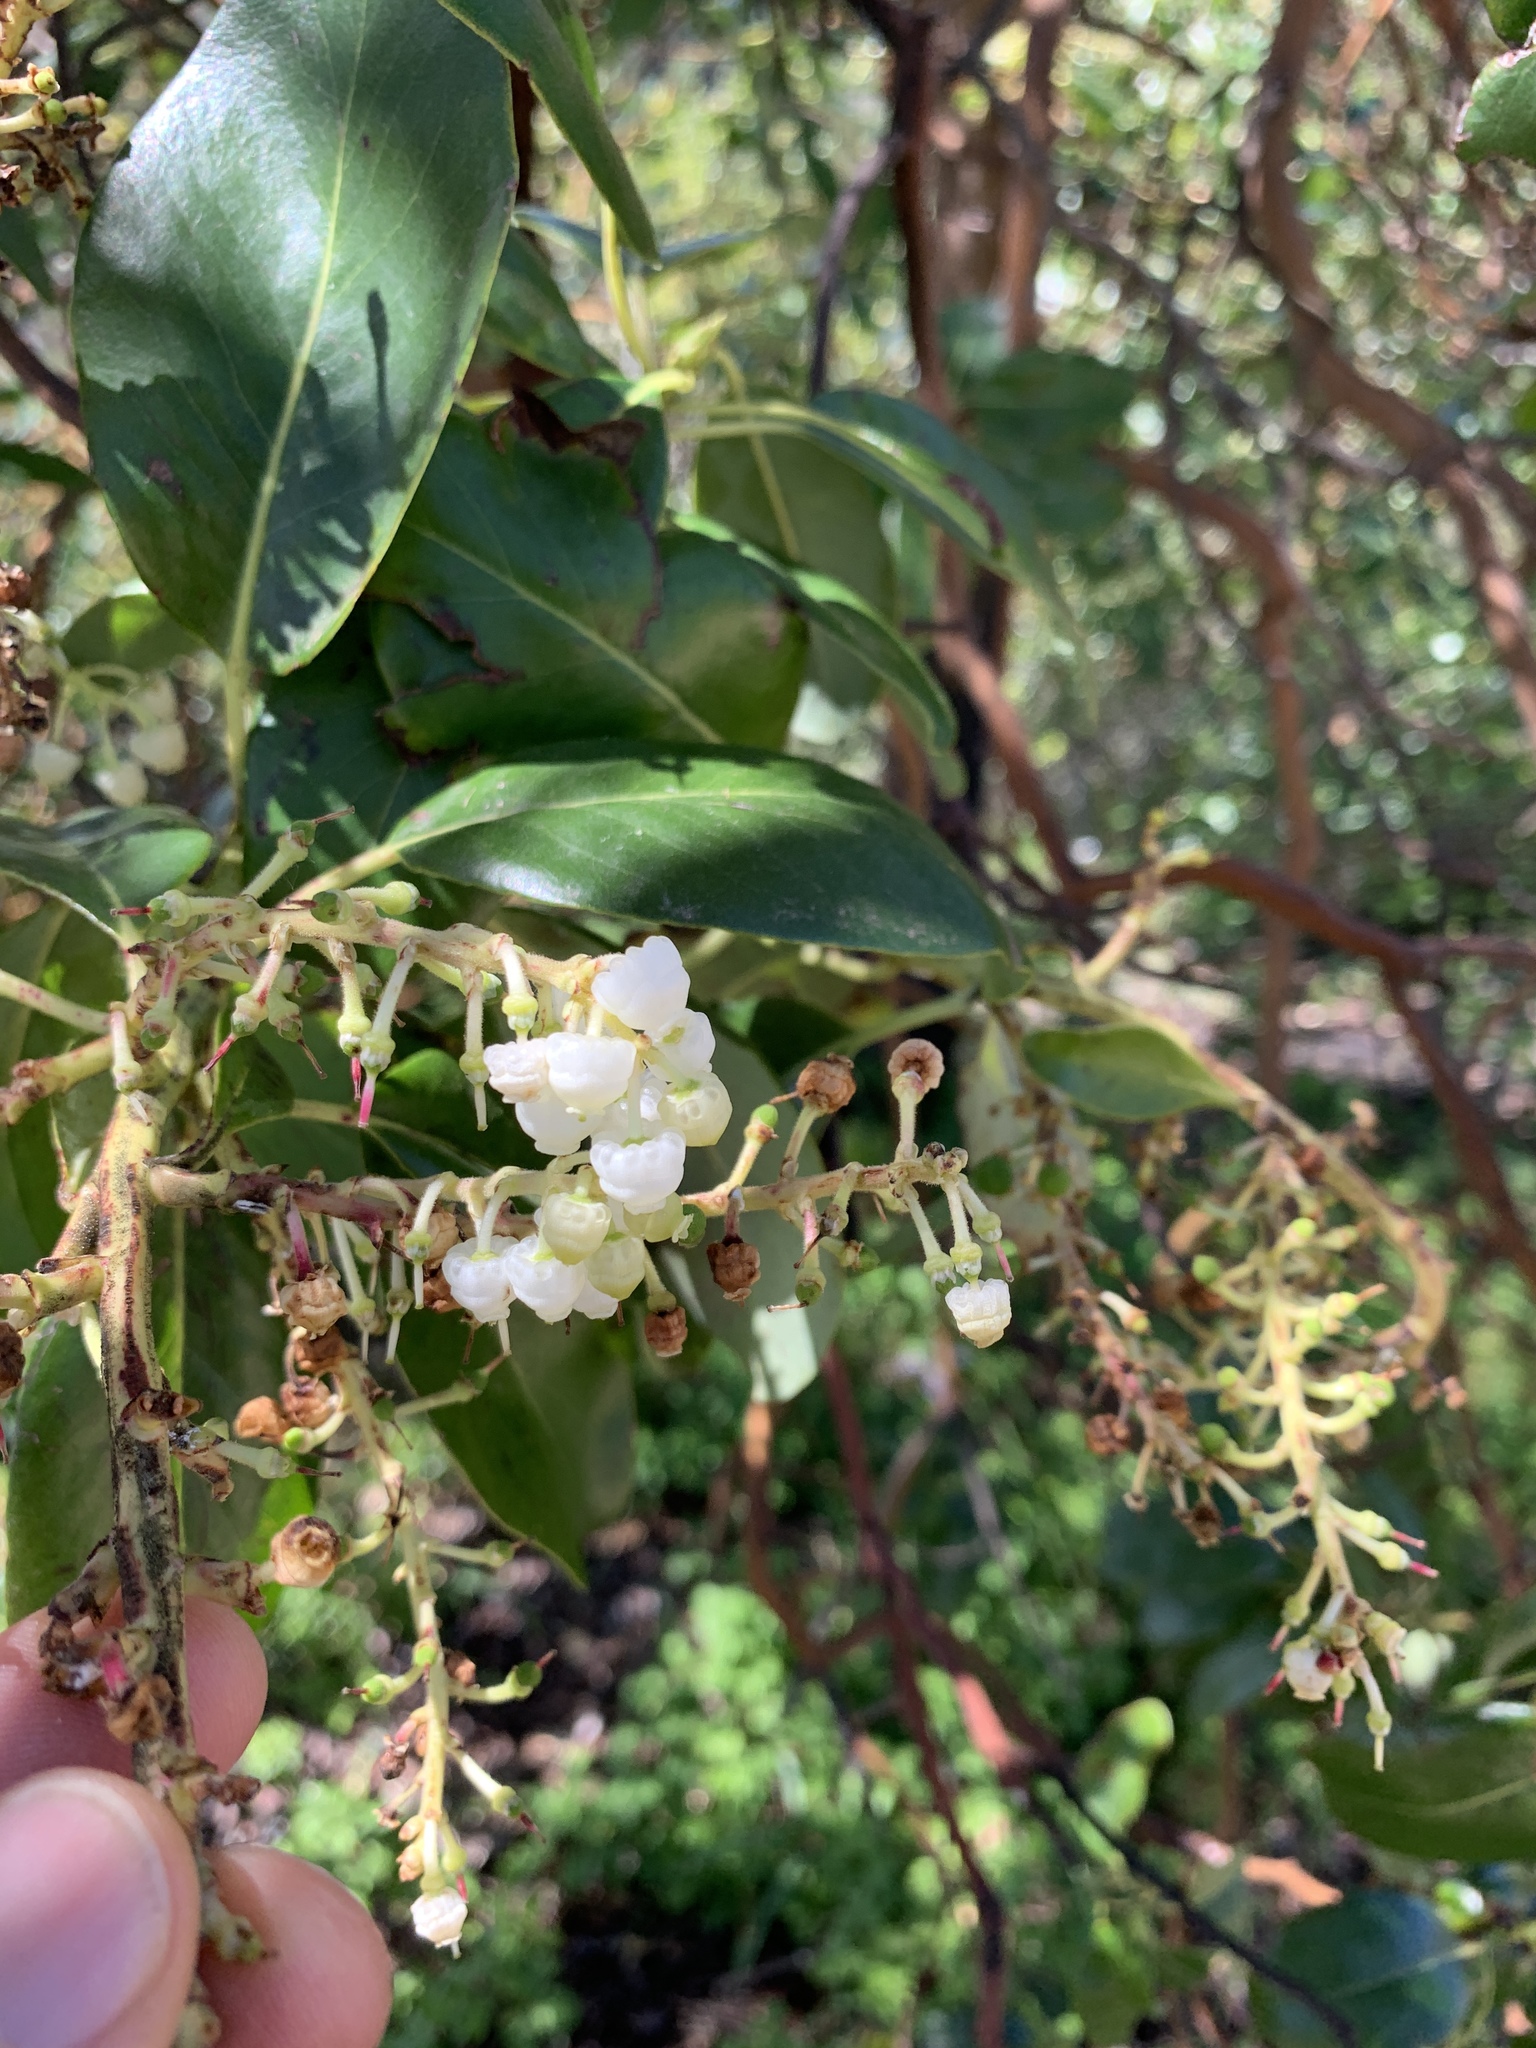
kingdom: Plantae
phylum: Tracheophyta
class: Magnoliopsida
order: Ericales
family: Ericaceae
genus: Arbutus
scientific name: Arbutus menziesii
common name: Pacific madrone
